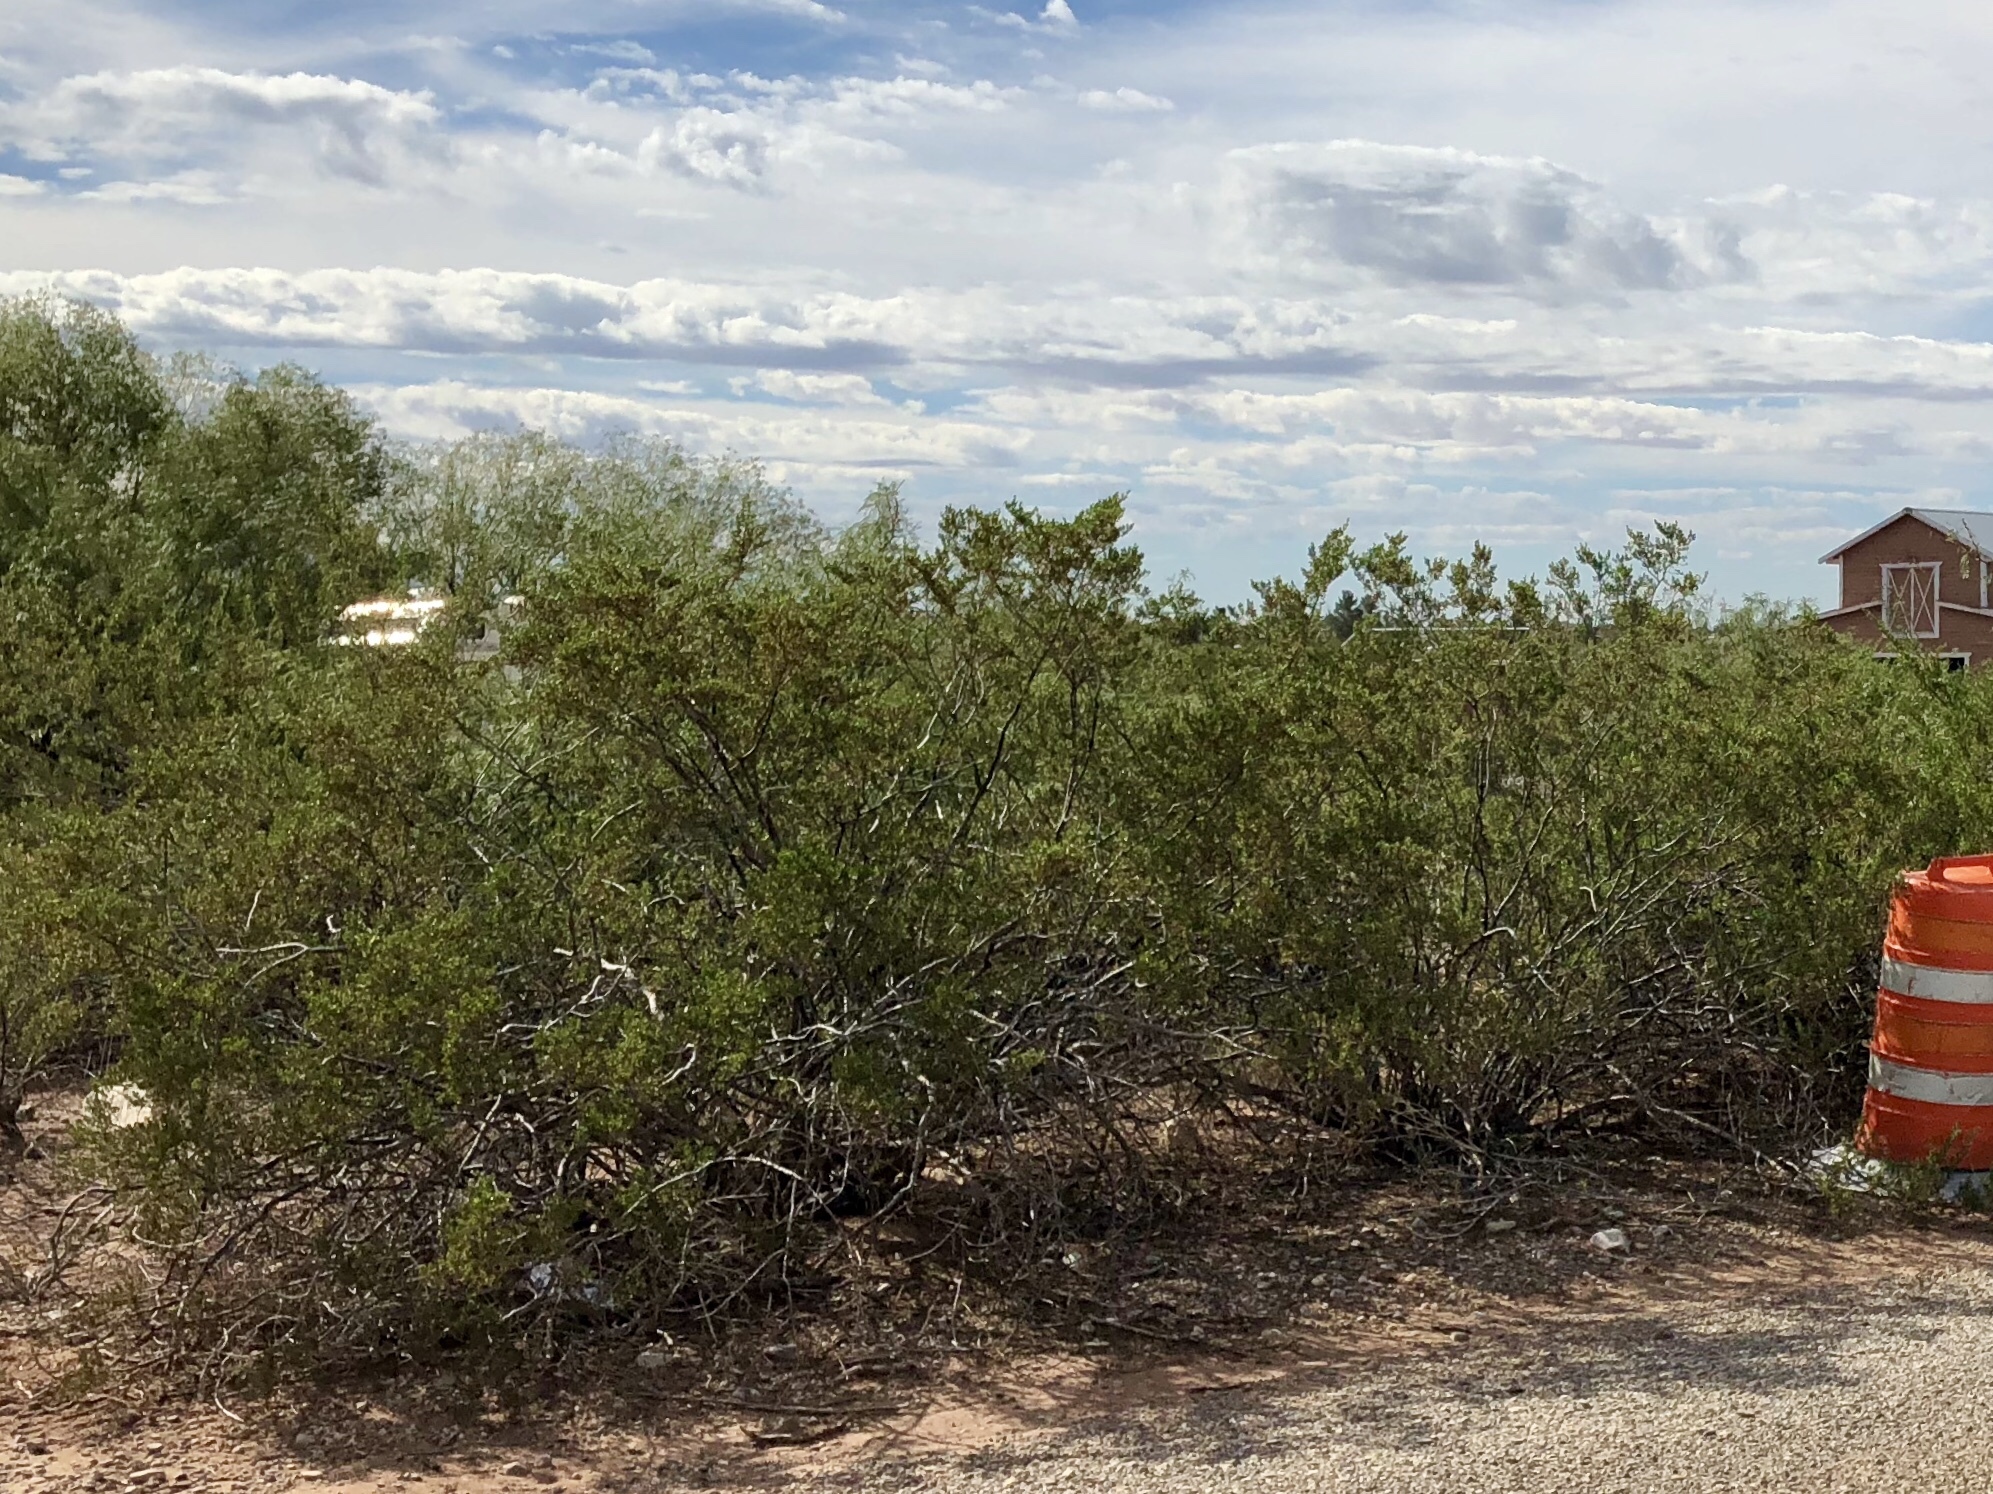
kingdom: Plantae
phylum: Tracheophyta
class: Magnoliopsida
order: Zygophyllales
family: Zygophyllaceae
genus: Larrea
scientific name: Larrea tridentata
